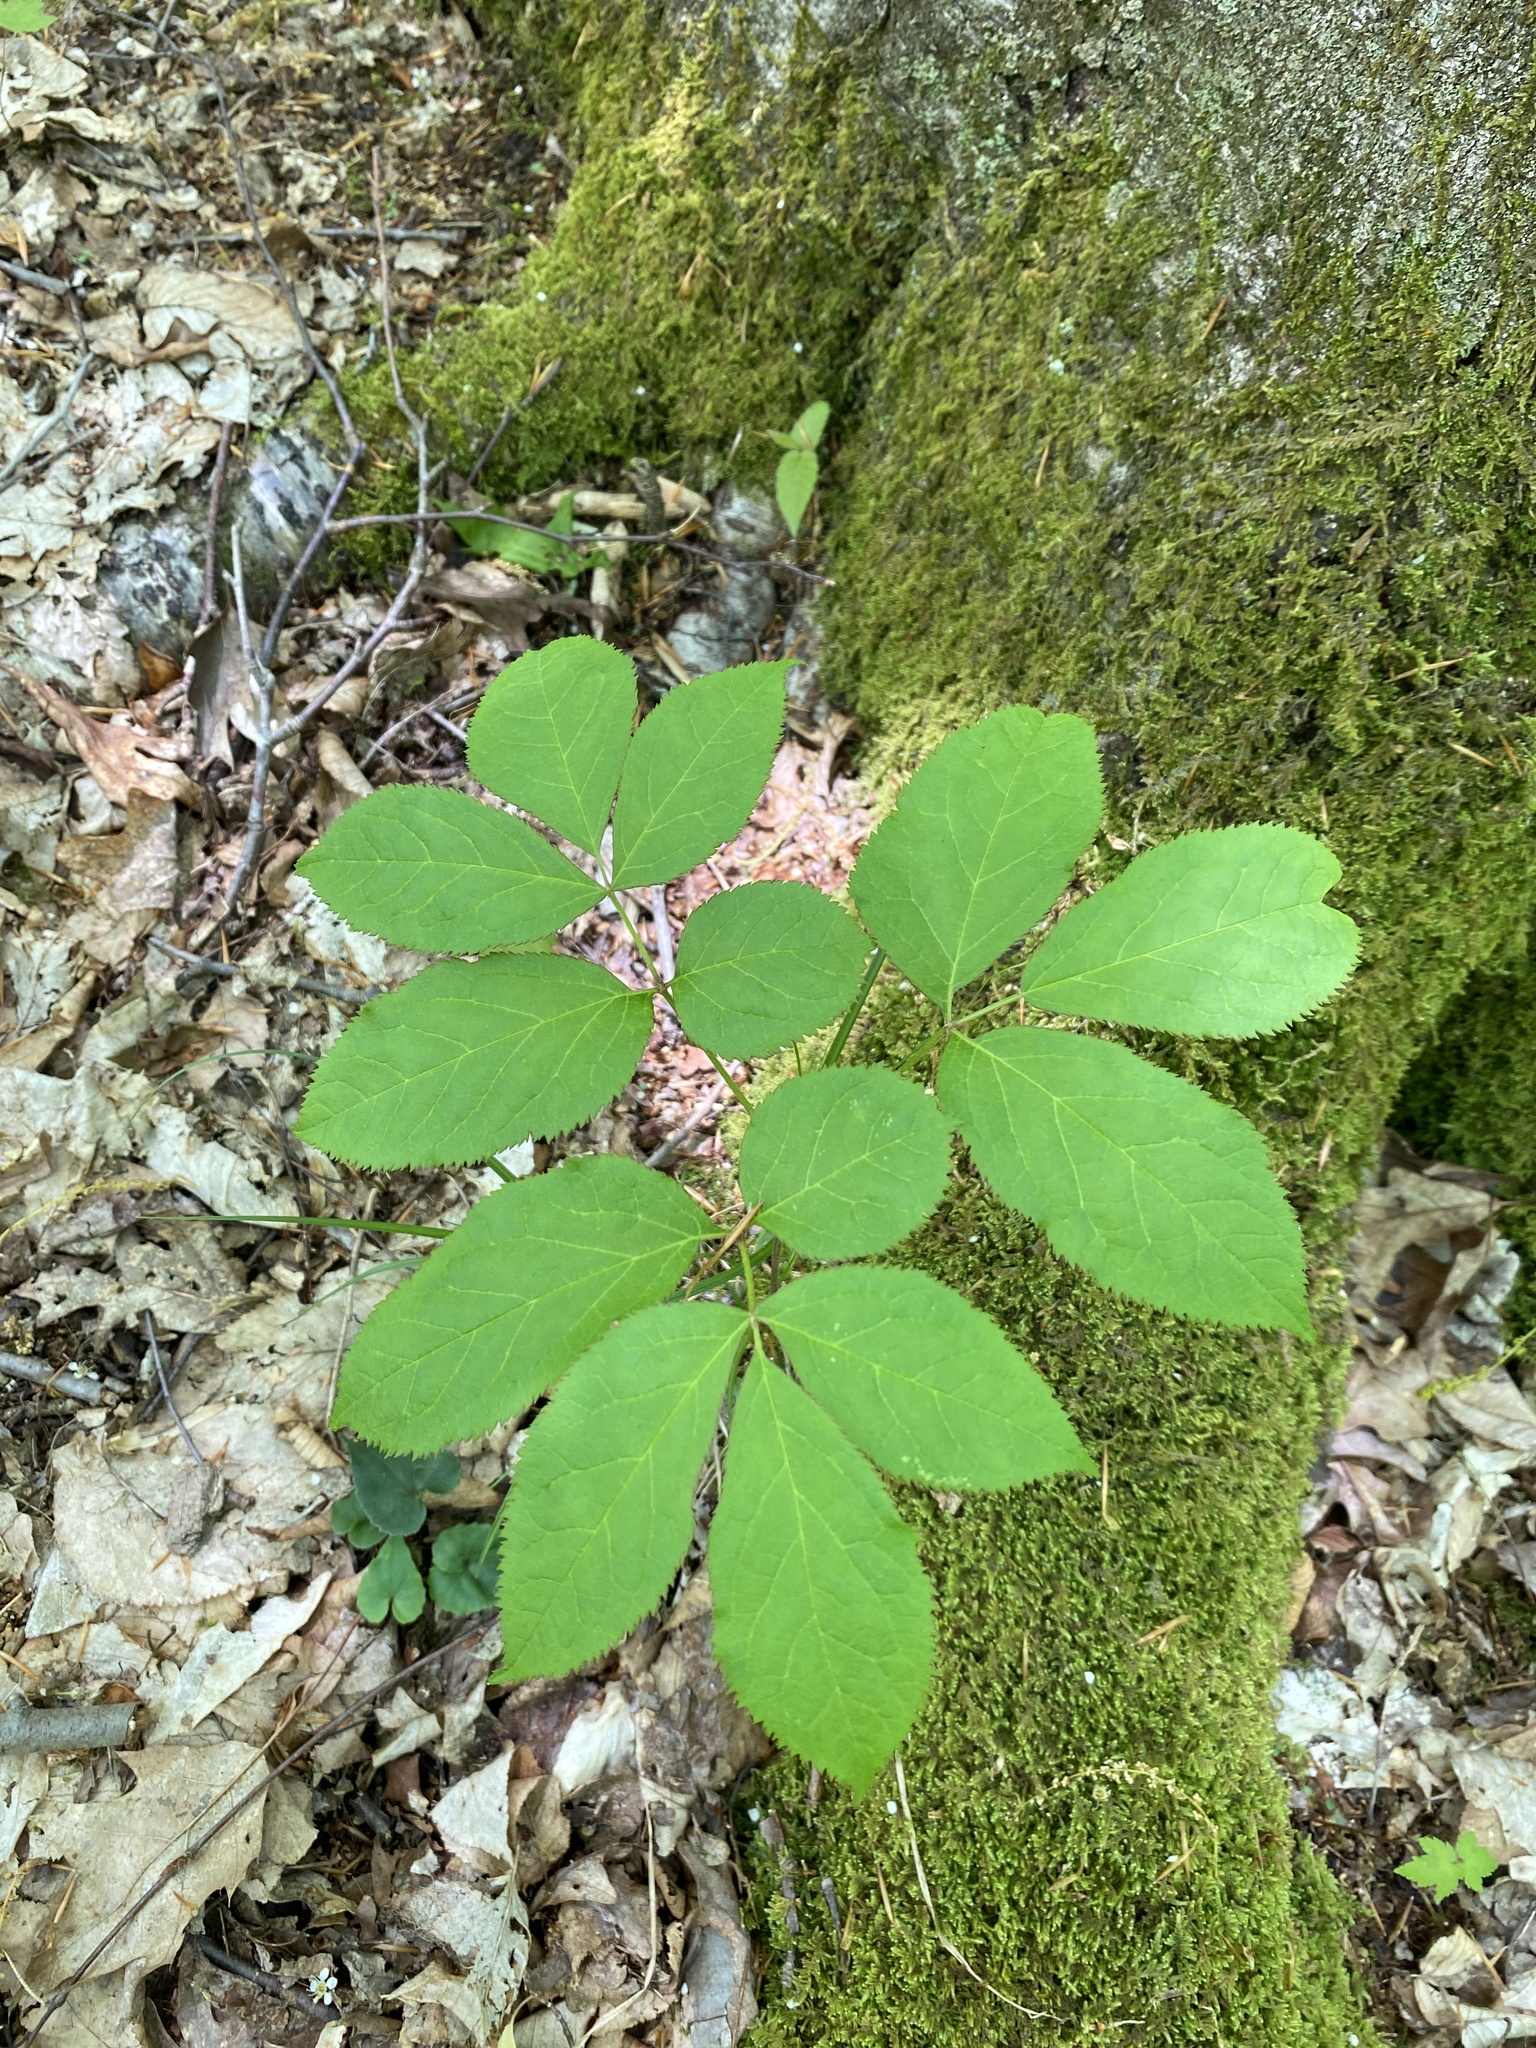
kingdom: Plantae
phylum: Tracheophyta
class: Magnoliopsida
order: Apiales
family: Araliaceae
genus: Aralia
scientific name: Aralia nudicaulis
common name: Wild sarsaparilla
